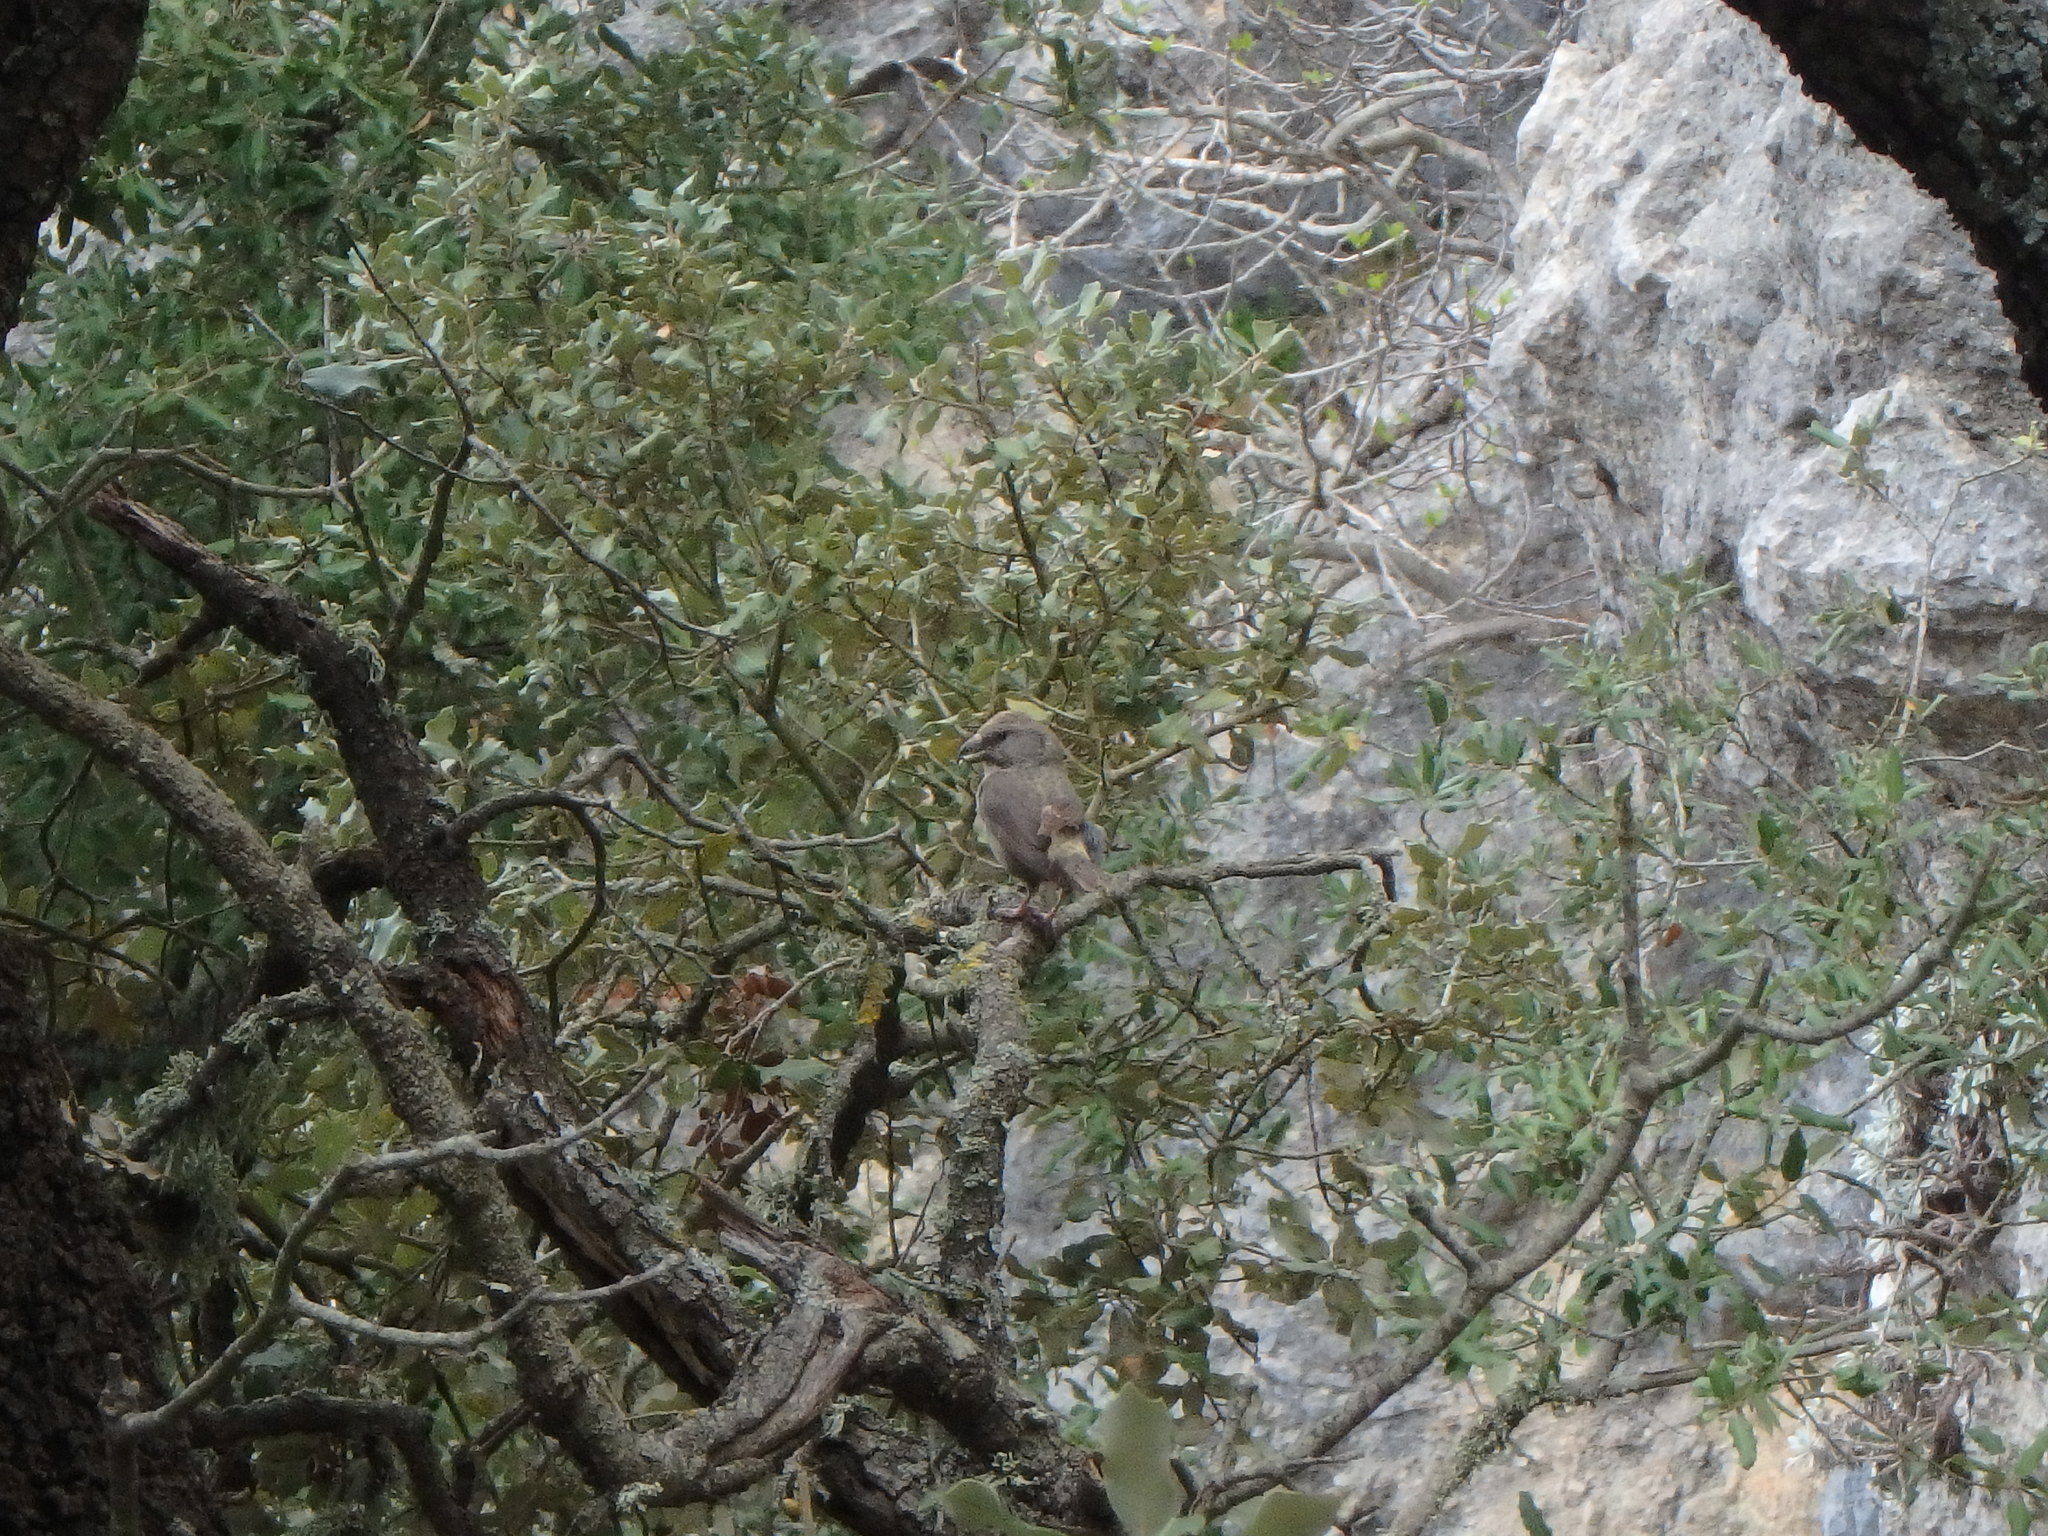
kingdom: Animalia
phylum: Chordata
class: Aves
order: Passeriformes
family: Fringillidae
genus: Loxia
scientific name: Loxia curvirostra
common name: Red crossbill
